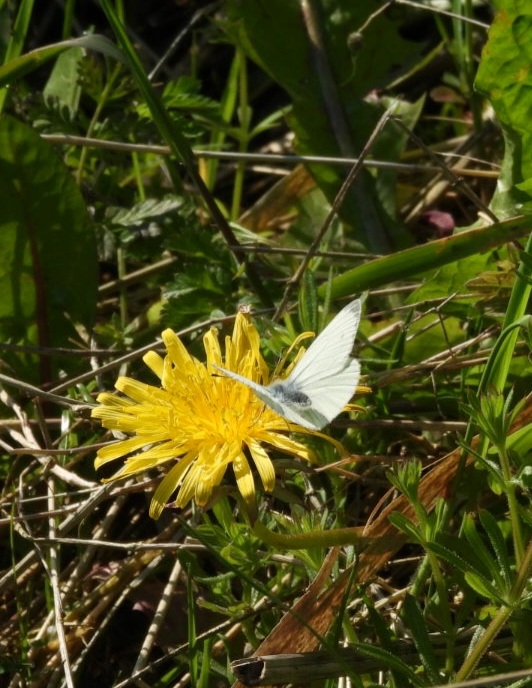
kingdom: Animalia
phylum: Arthropoda
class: Insecta
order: Lepidoptera
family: Pieridae
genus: Pieris
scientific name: Pieris napi
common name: Green-veined white
